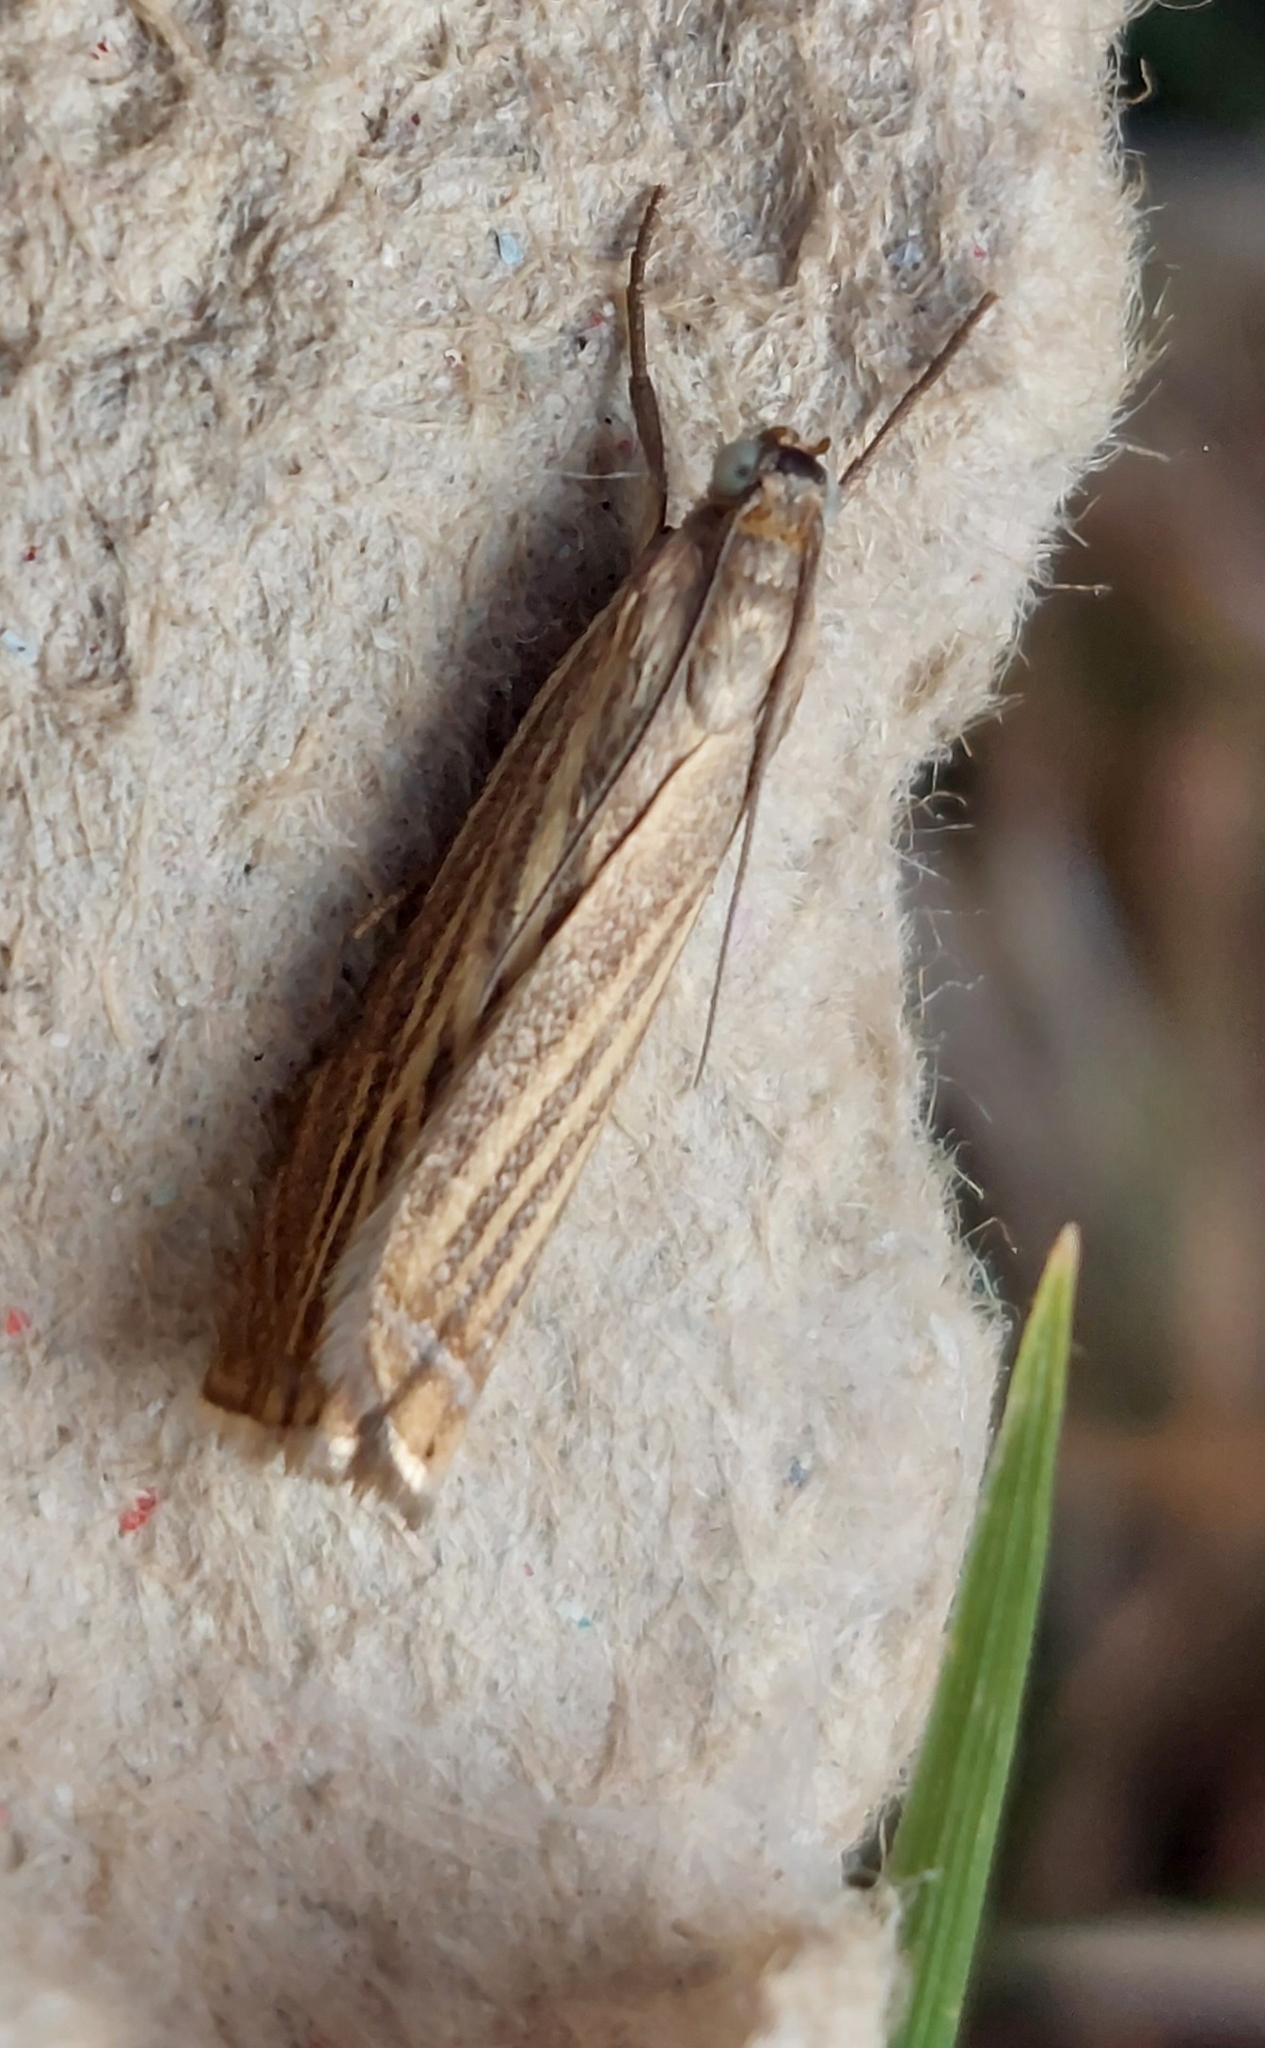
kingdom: Animalia
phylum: Arthropoda
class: Insecta
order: Lepidoptera
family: Crambidae
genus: Chrysoteuchia
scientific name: Chrysoteuchia culmella
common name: Garden grass-veneer
